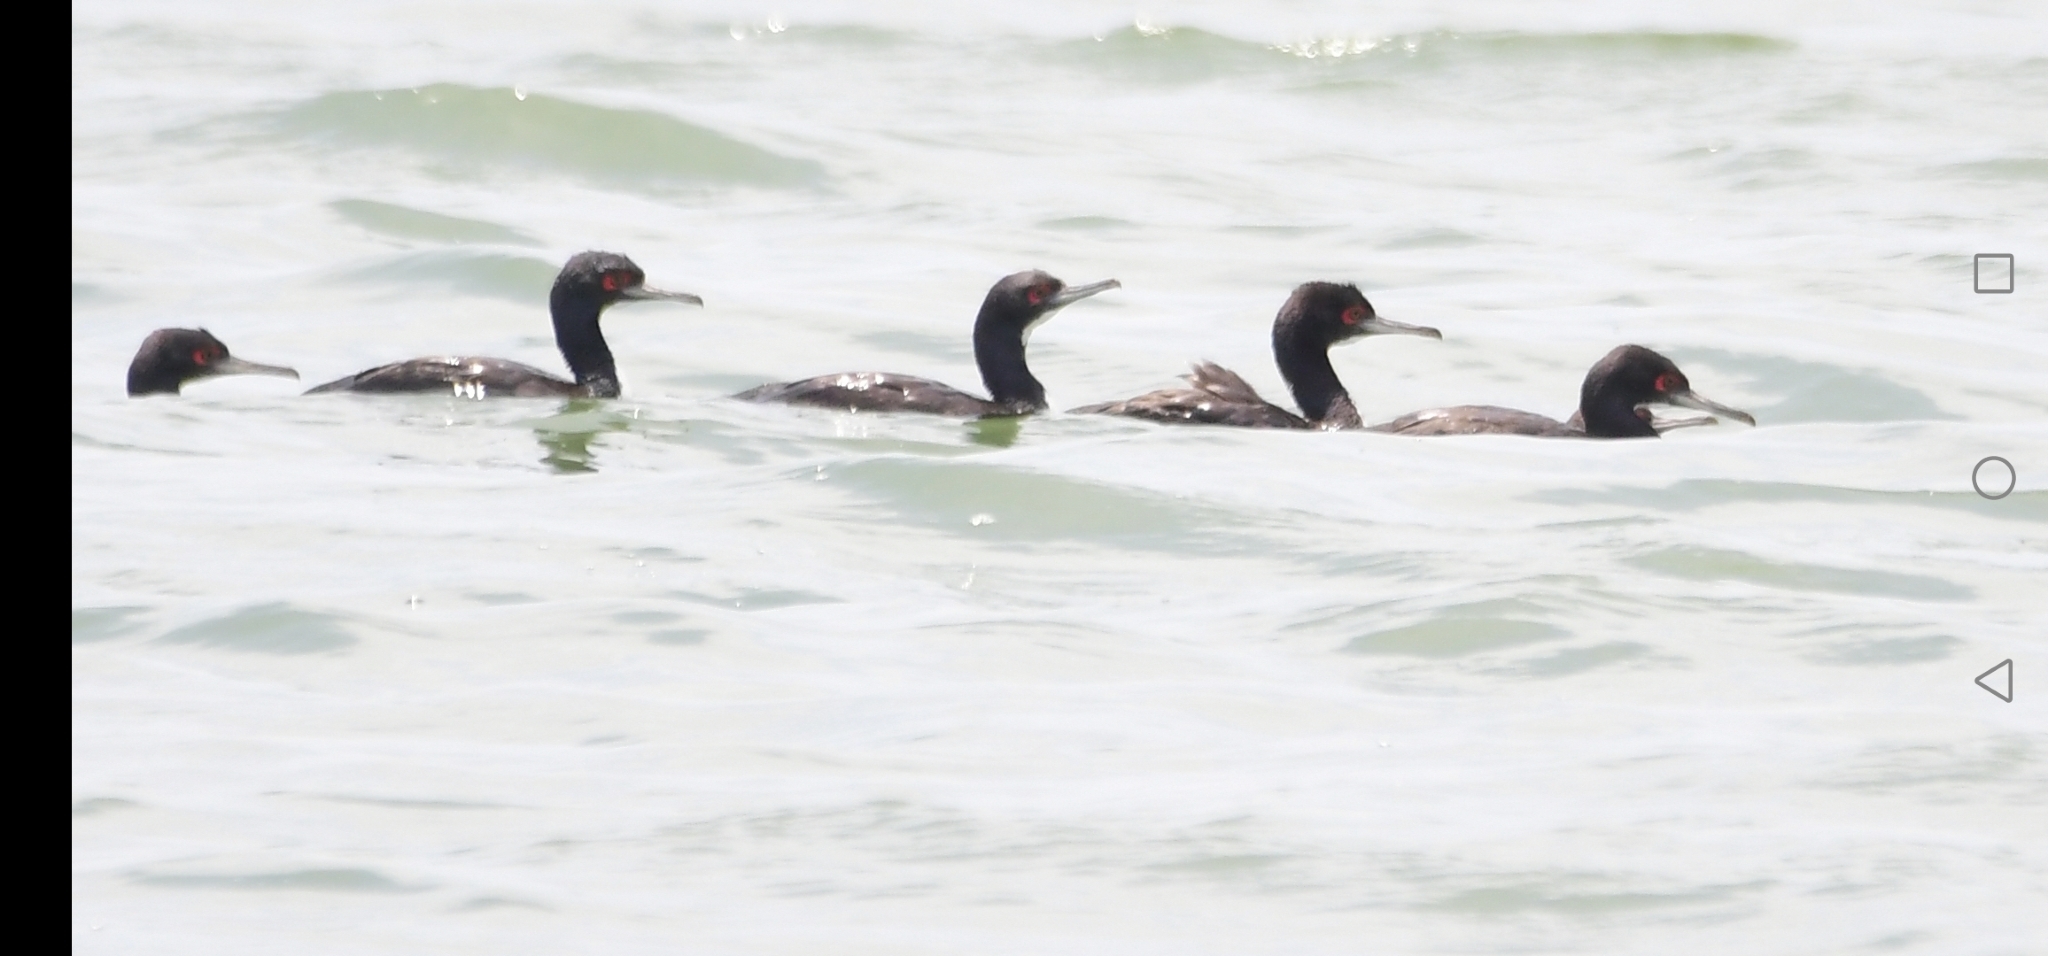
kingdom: Animalia
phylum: Chordata
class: Aves
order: Suliformes
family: Phalacrocoracidae
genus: Leucocarbo
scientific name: Leucocarbo bougainvillii
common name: Guanay cormorant
